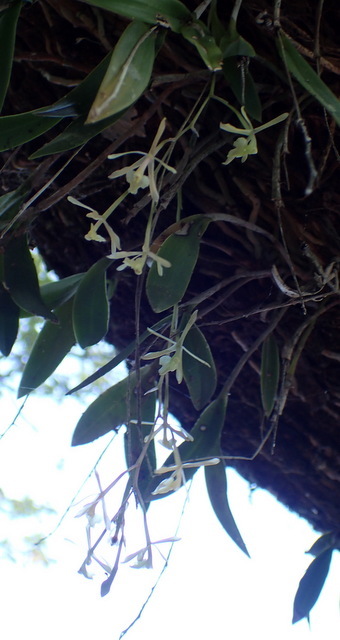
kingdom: Plantae
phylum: Tracheophyta
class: Liliopsida
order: Asparagales
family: Orchidaceae
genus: Epidendrum
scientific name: Epidendrum conopseum
